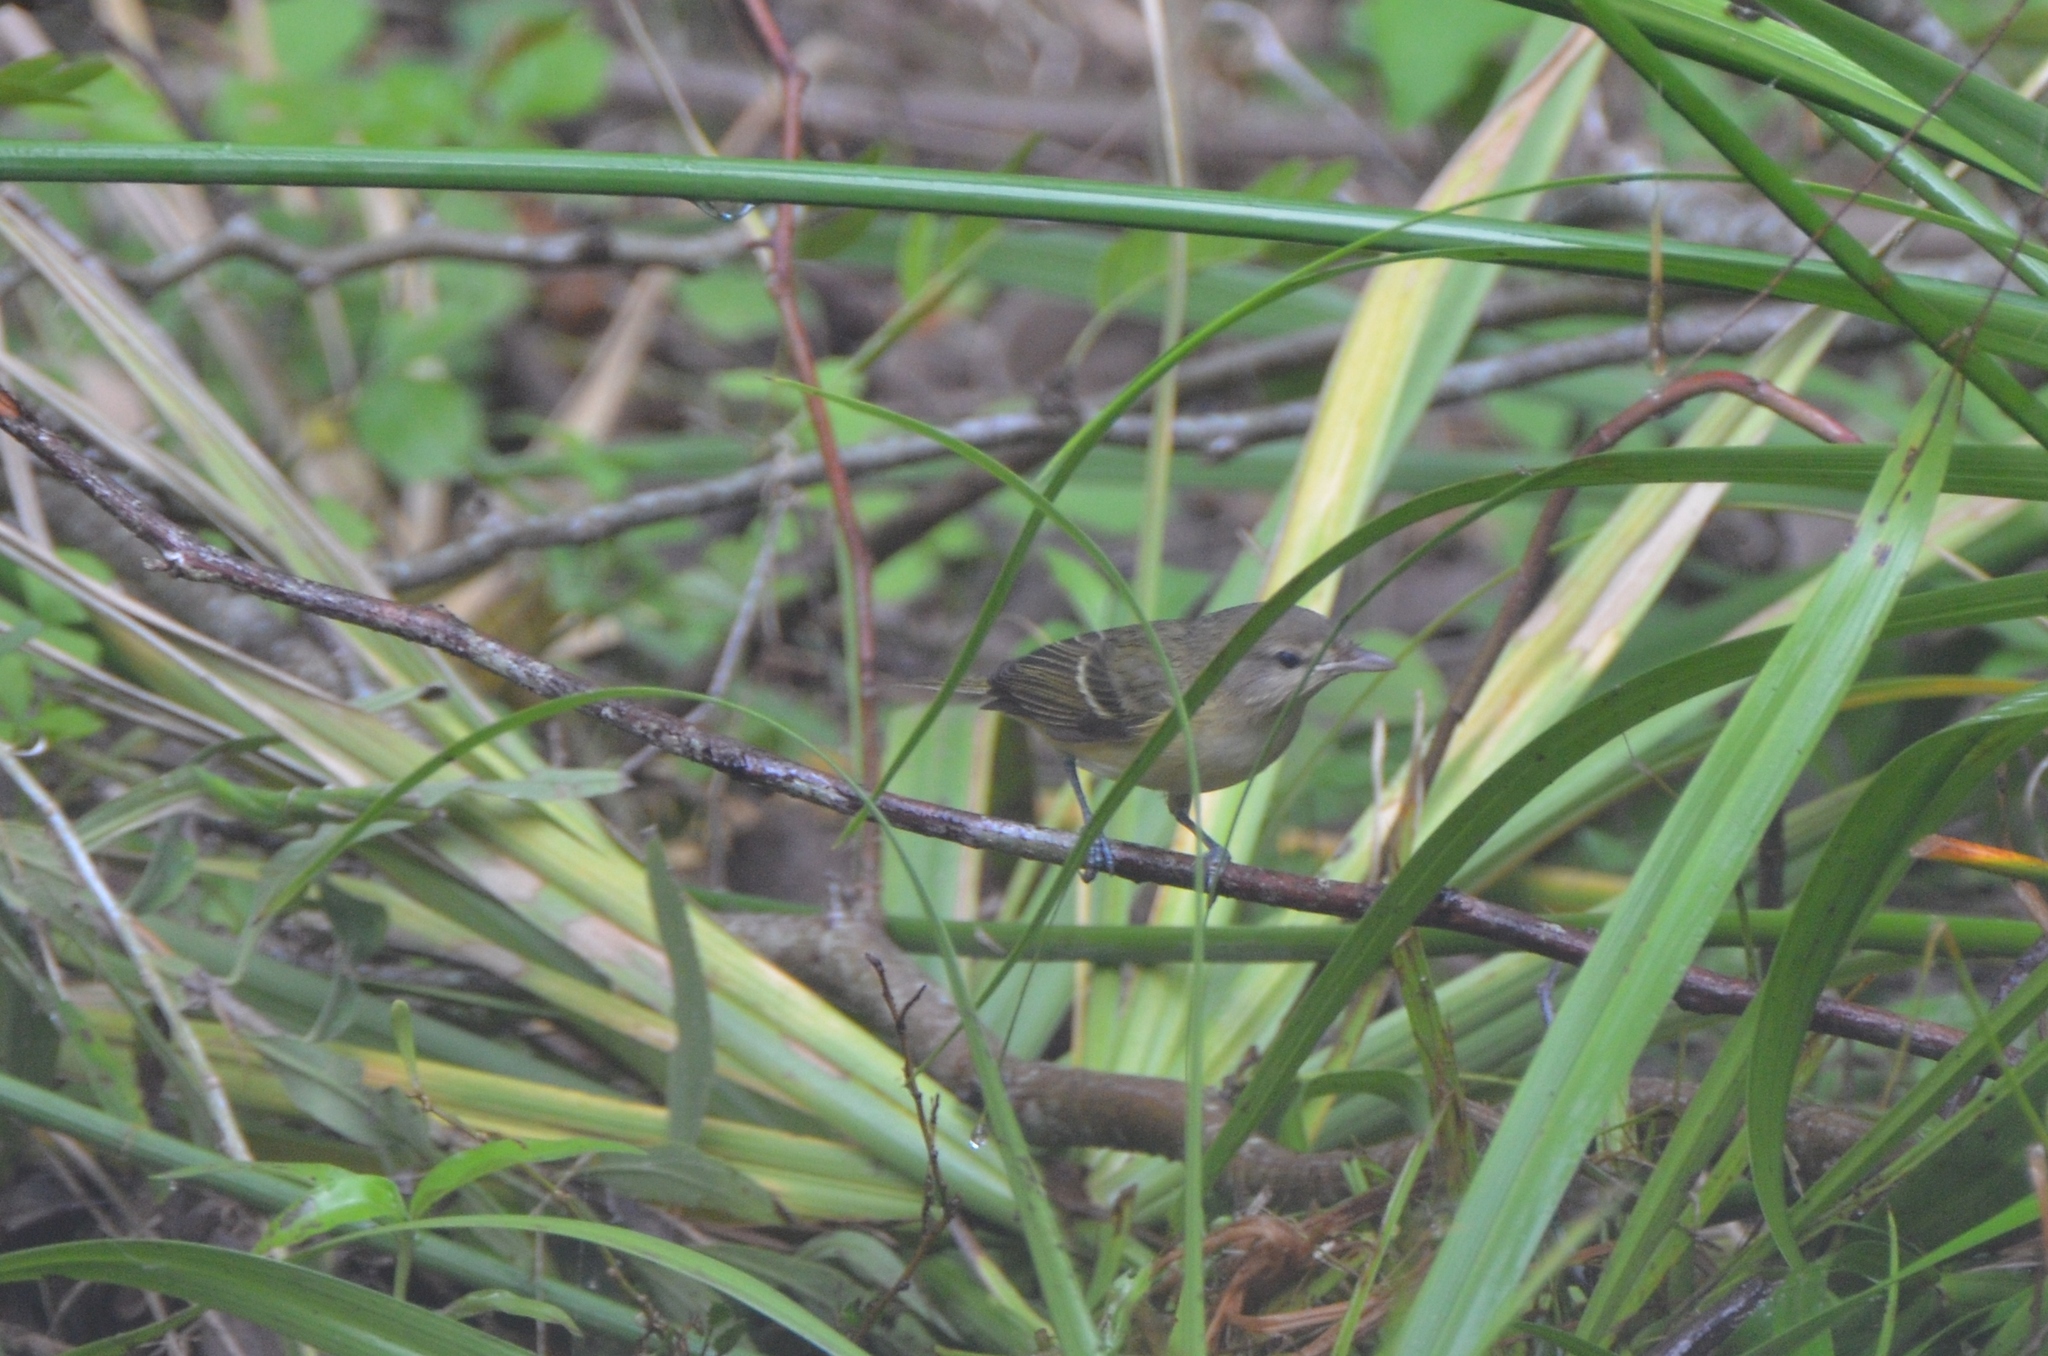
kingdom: Animalia
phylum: Chordata
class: Aves
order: Passeriformes
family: Vireonidae
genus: Vireo
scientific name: Vireo bellii
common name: Bell's vireo
